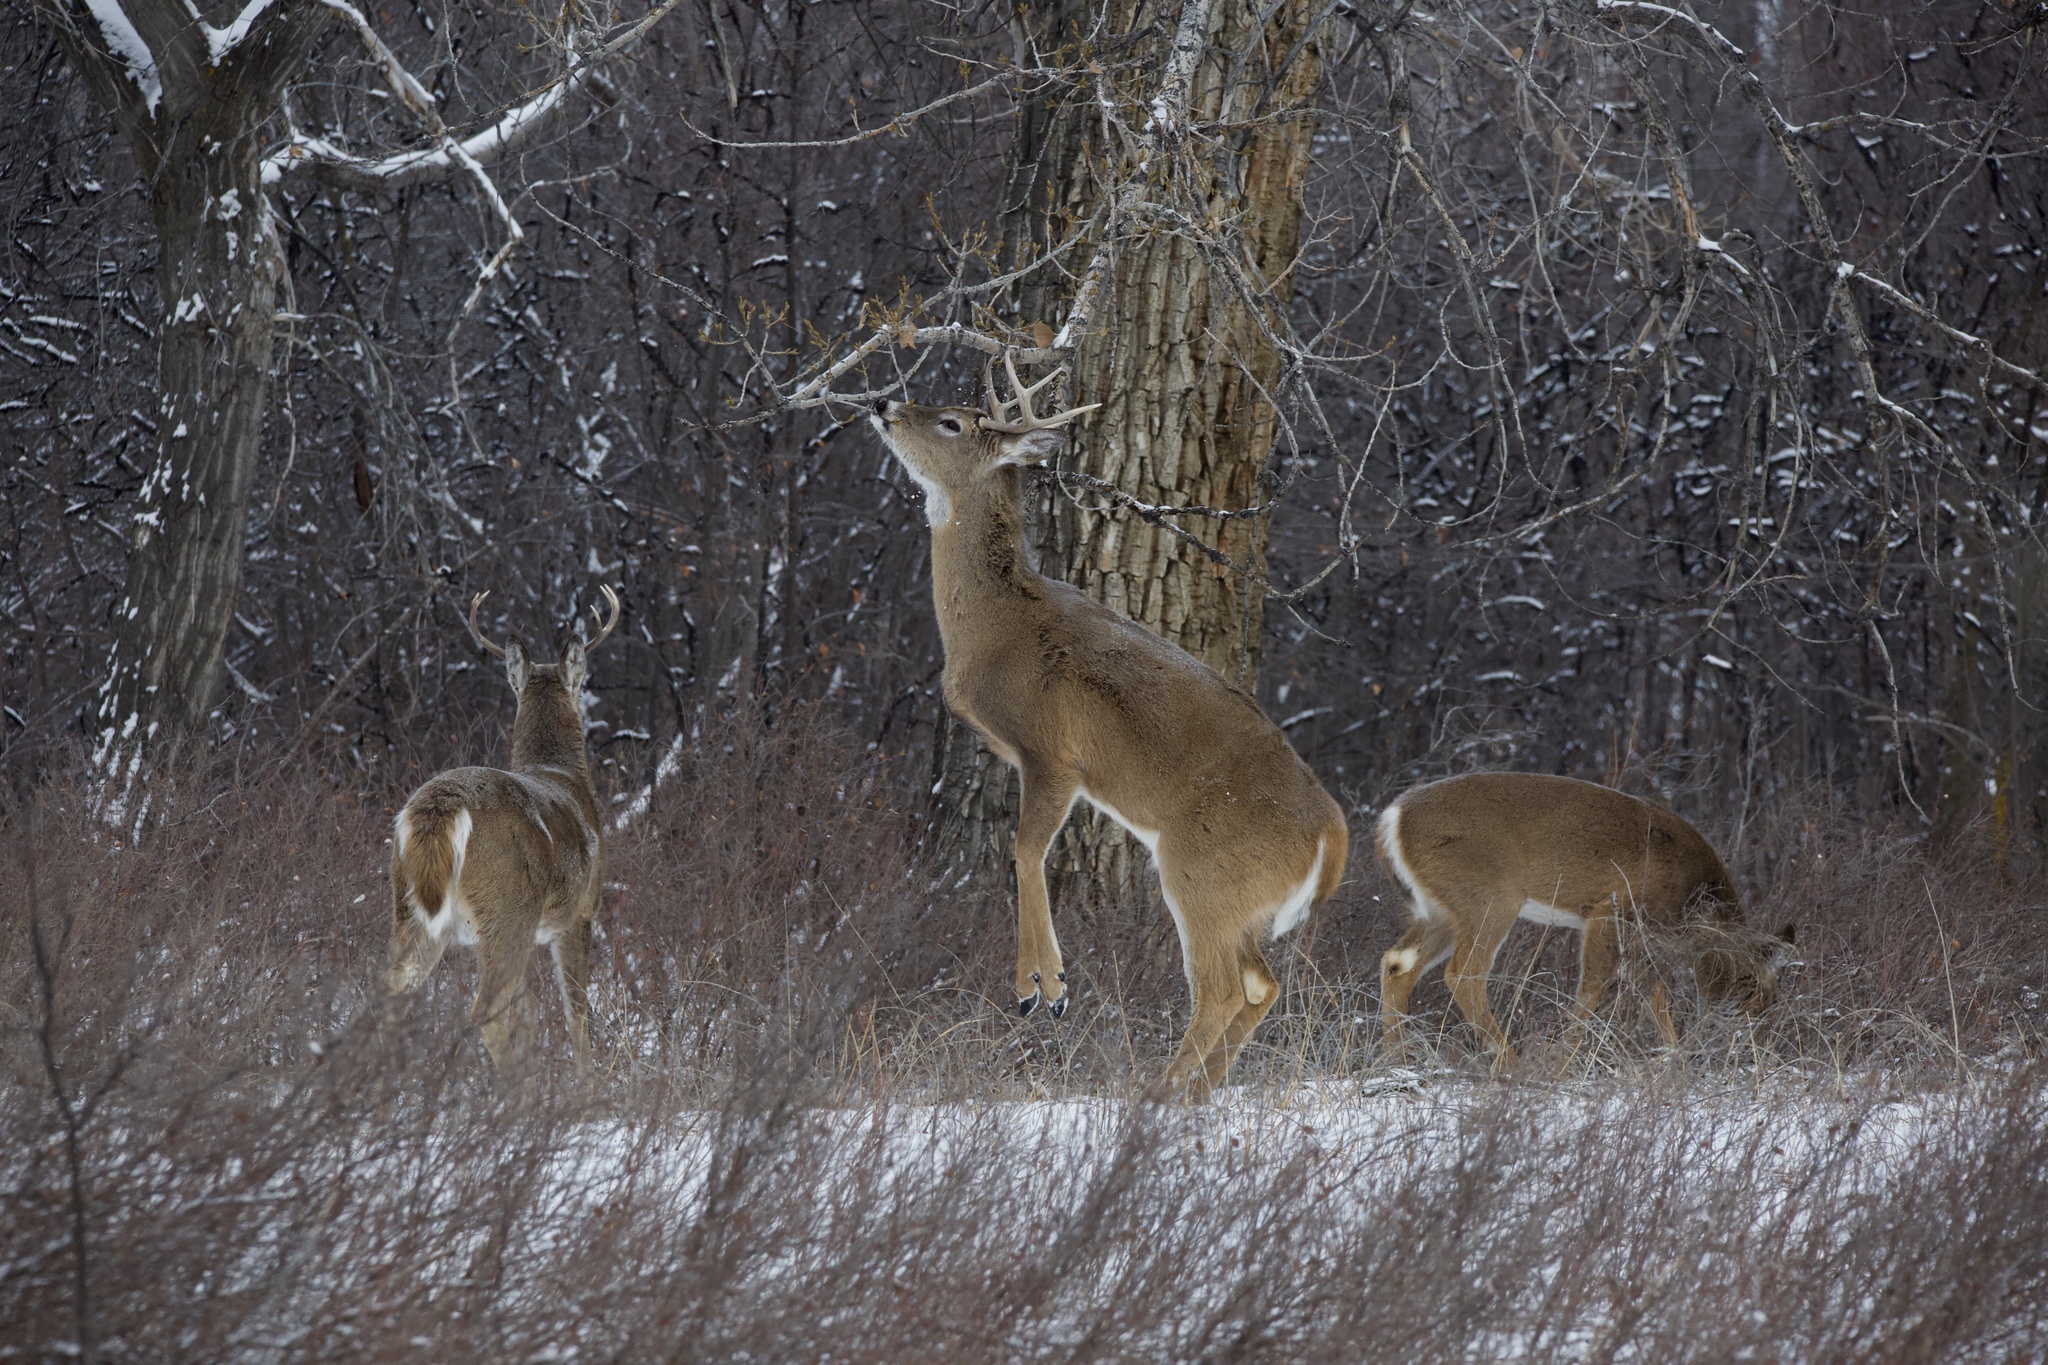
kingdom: Animalia
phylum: Chordata
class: Mammalia
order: Artiodactyla
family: Cervidae
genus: Odocoileus
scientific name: Odocoileus virginianus
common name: White-tailed deer
